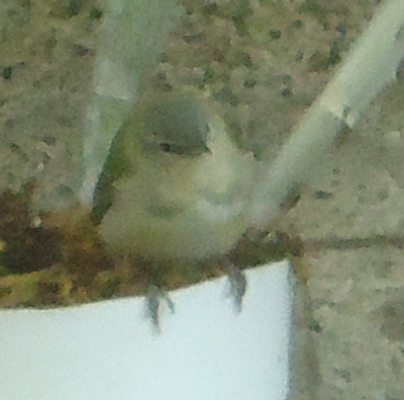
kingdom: Animalia
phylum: Chordata
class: Aves
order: Passeriformes
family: Parulidae
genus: Leiothlypis
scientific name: Leiothlypis peregrina
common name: Tennessee warbler
